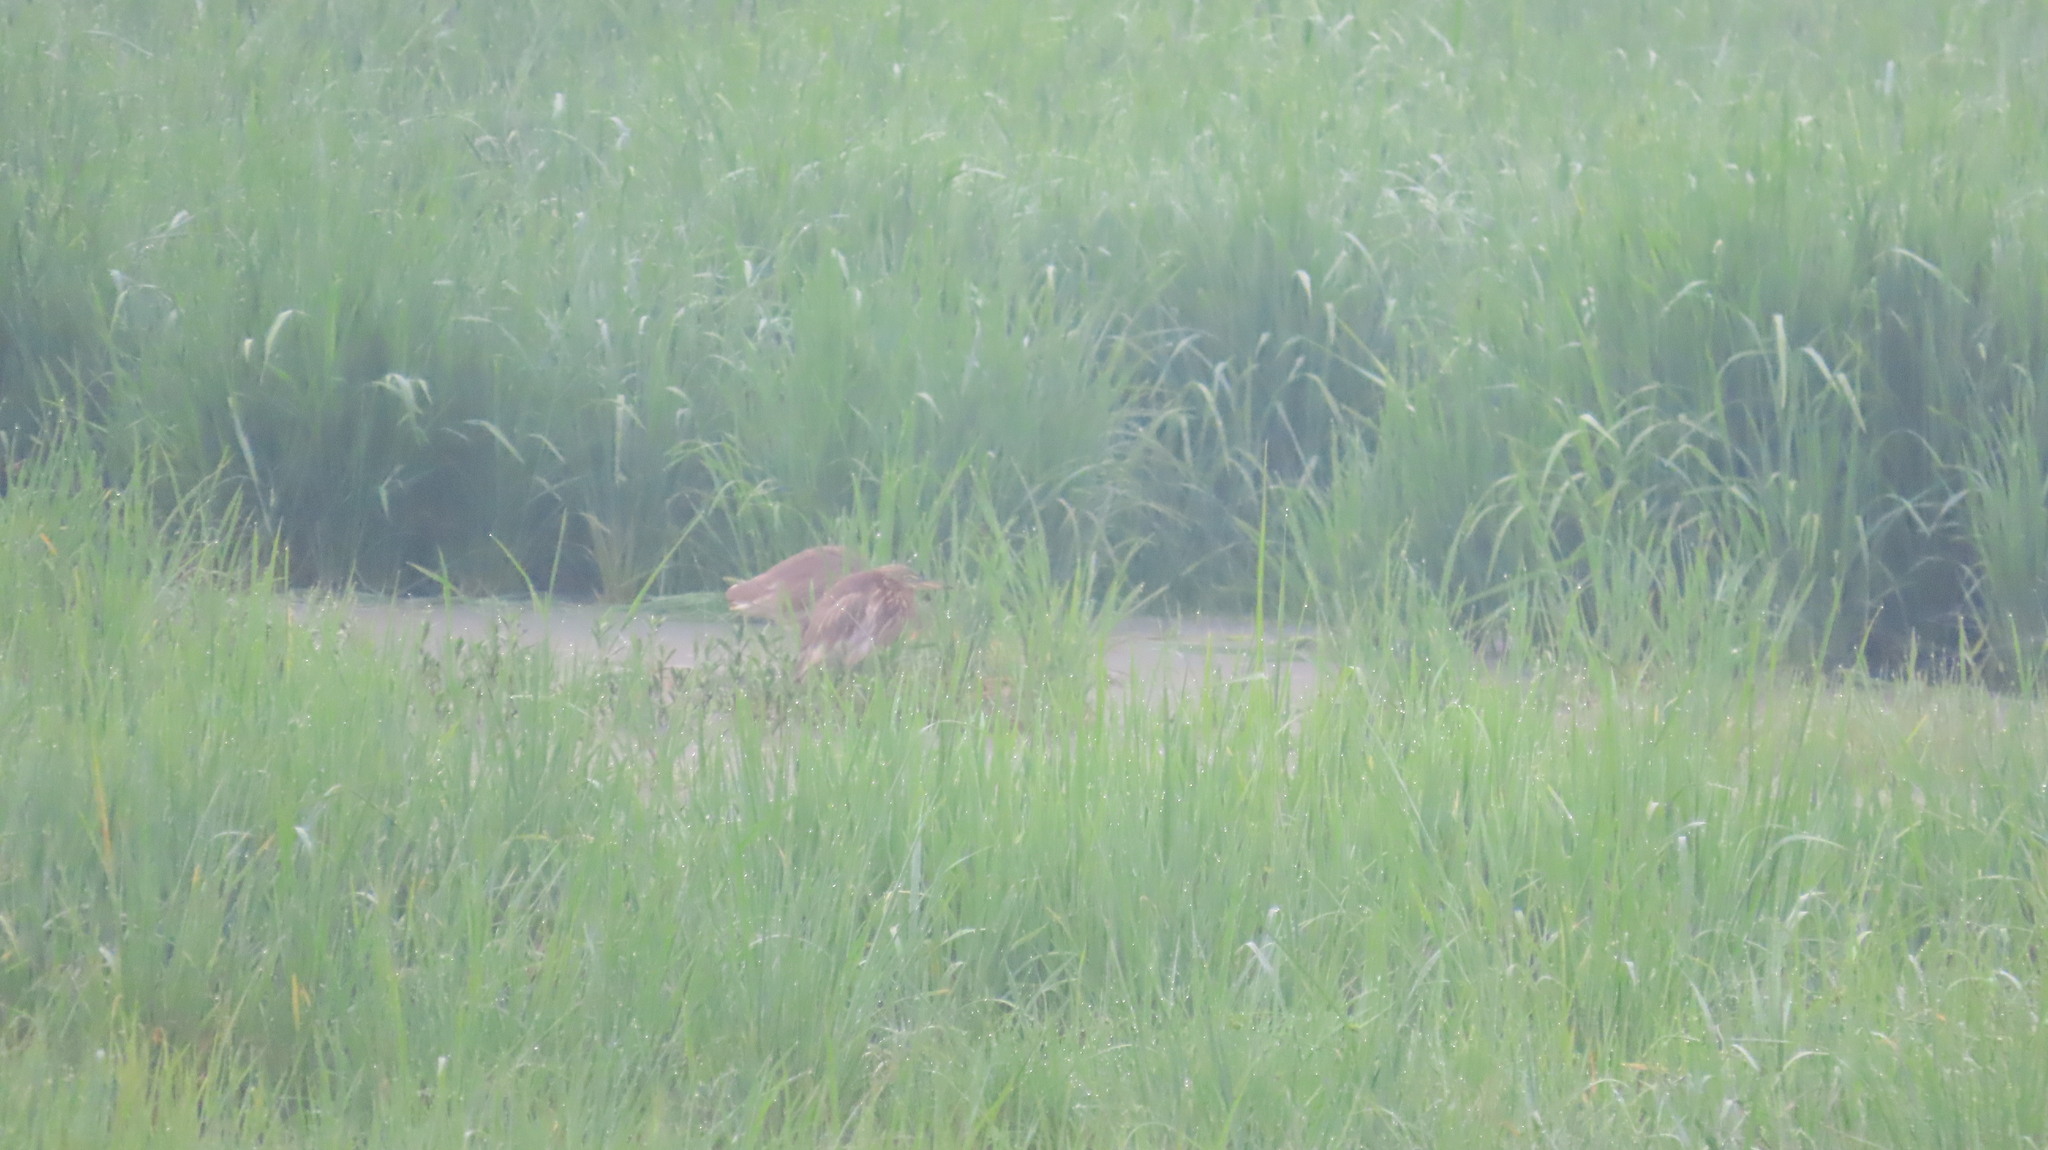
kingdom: Animalia
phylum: Chordata
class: Aves
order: Pelecaniformes
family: Ardeidae
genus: Ardeola
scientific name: Ardeola grayii
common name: Indian pond heron
